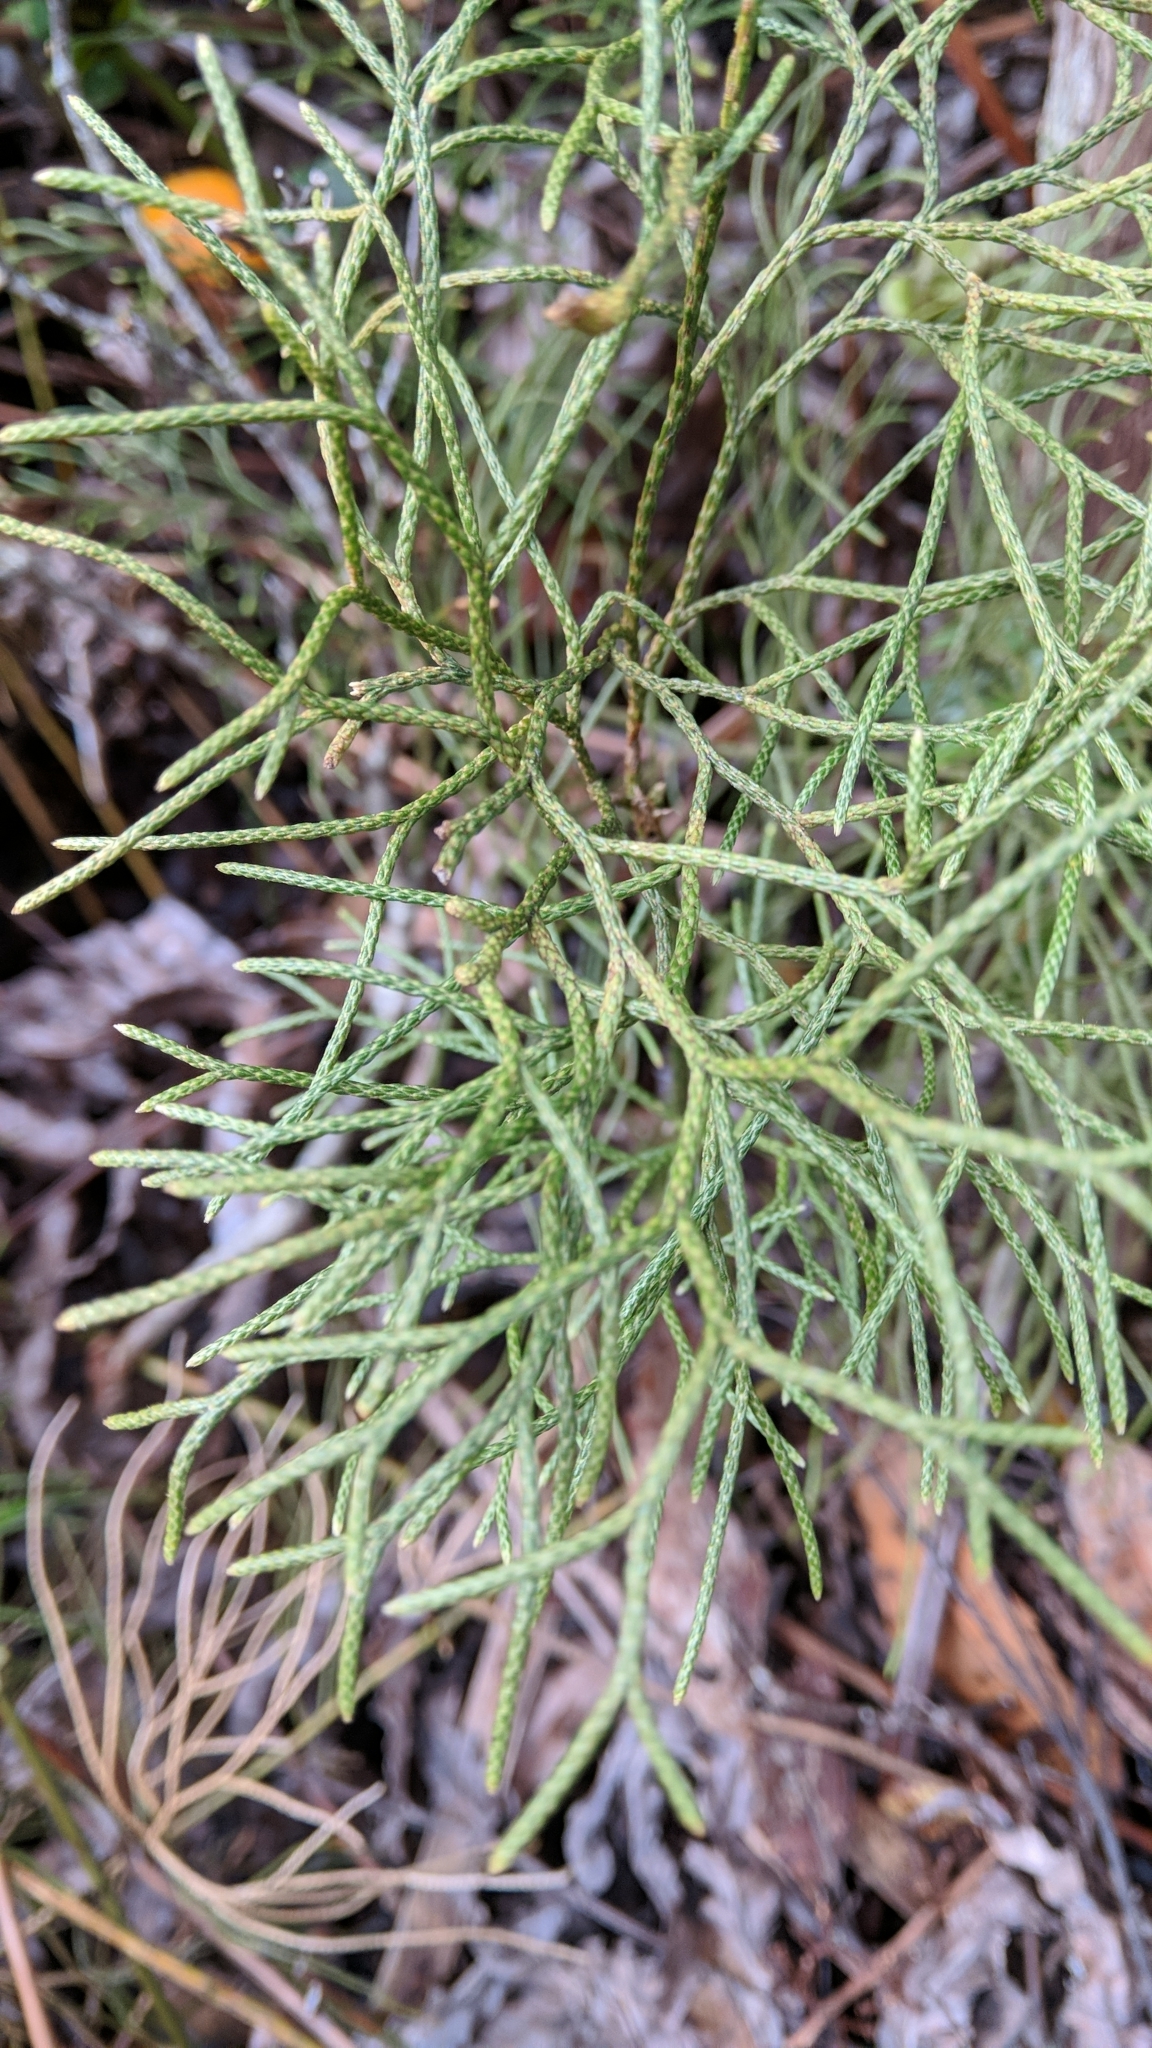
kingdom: Plantae
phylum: Tracheophyta
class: Lycopodiopsida
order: Lycopodiales
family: Lycopodiaceae
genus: Pseudolycopodium
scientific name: Pseudolycopodium densum
